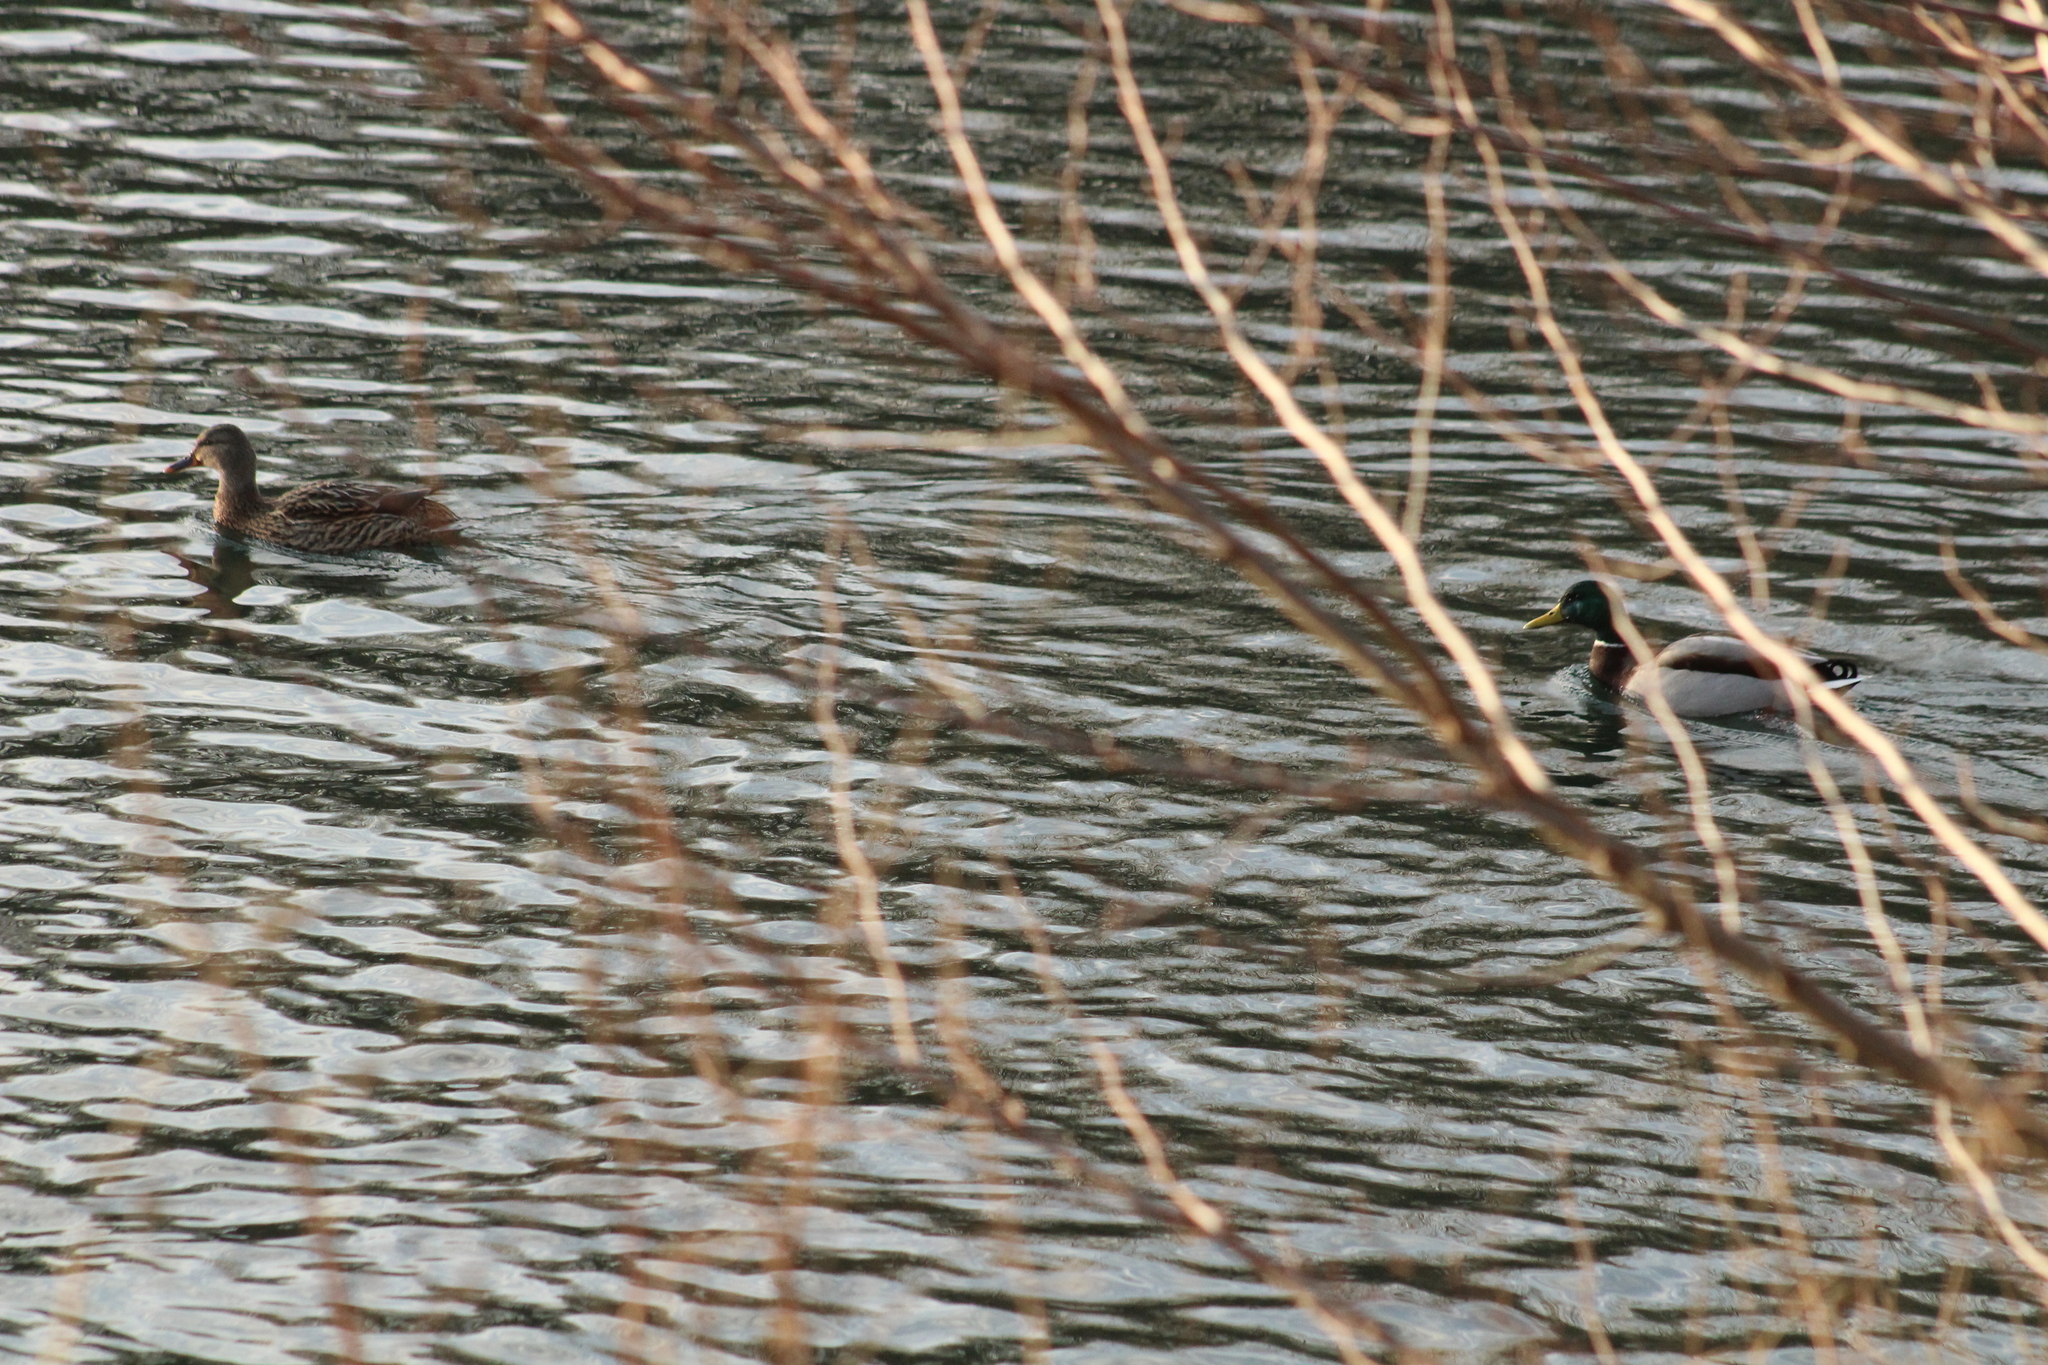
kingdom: Animalia
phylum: Chordata
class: Aves
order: Anseriformes
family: Anatidae
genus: Anas
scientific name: Anas platyrhynchos
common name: Mallard
